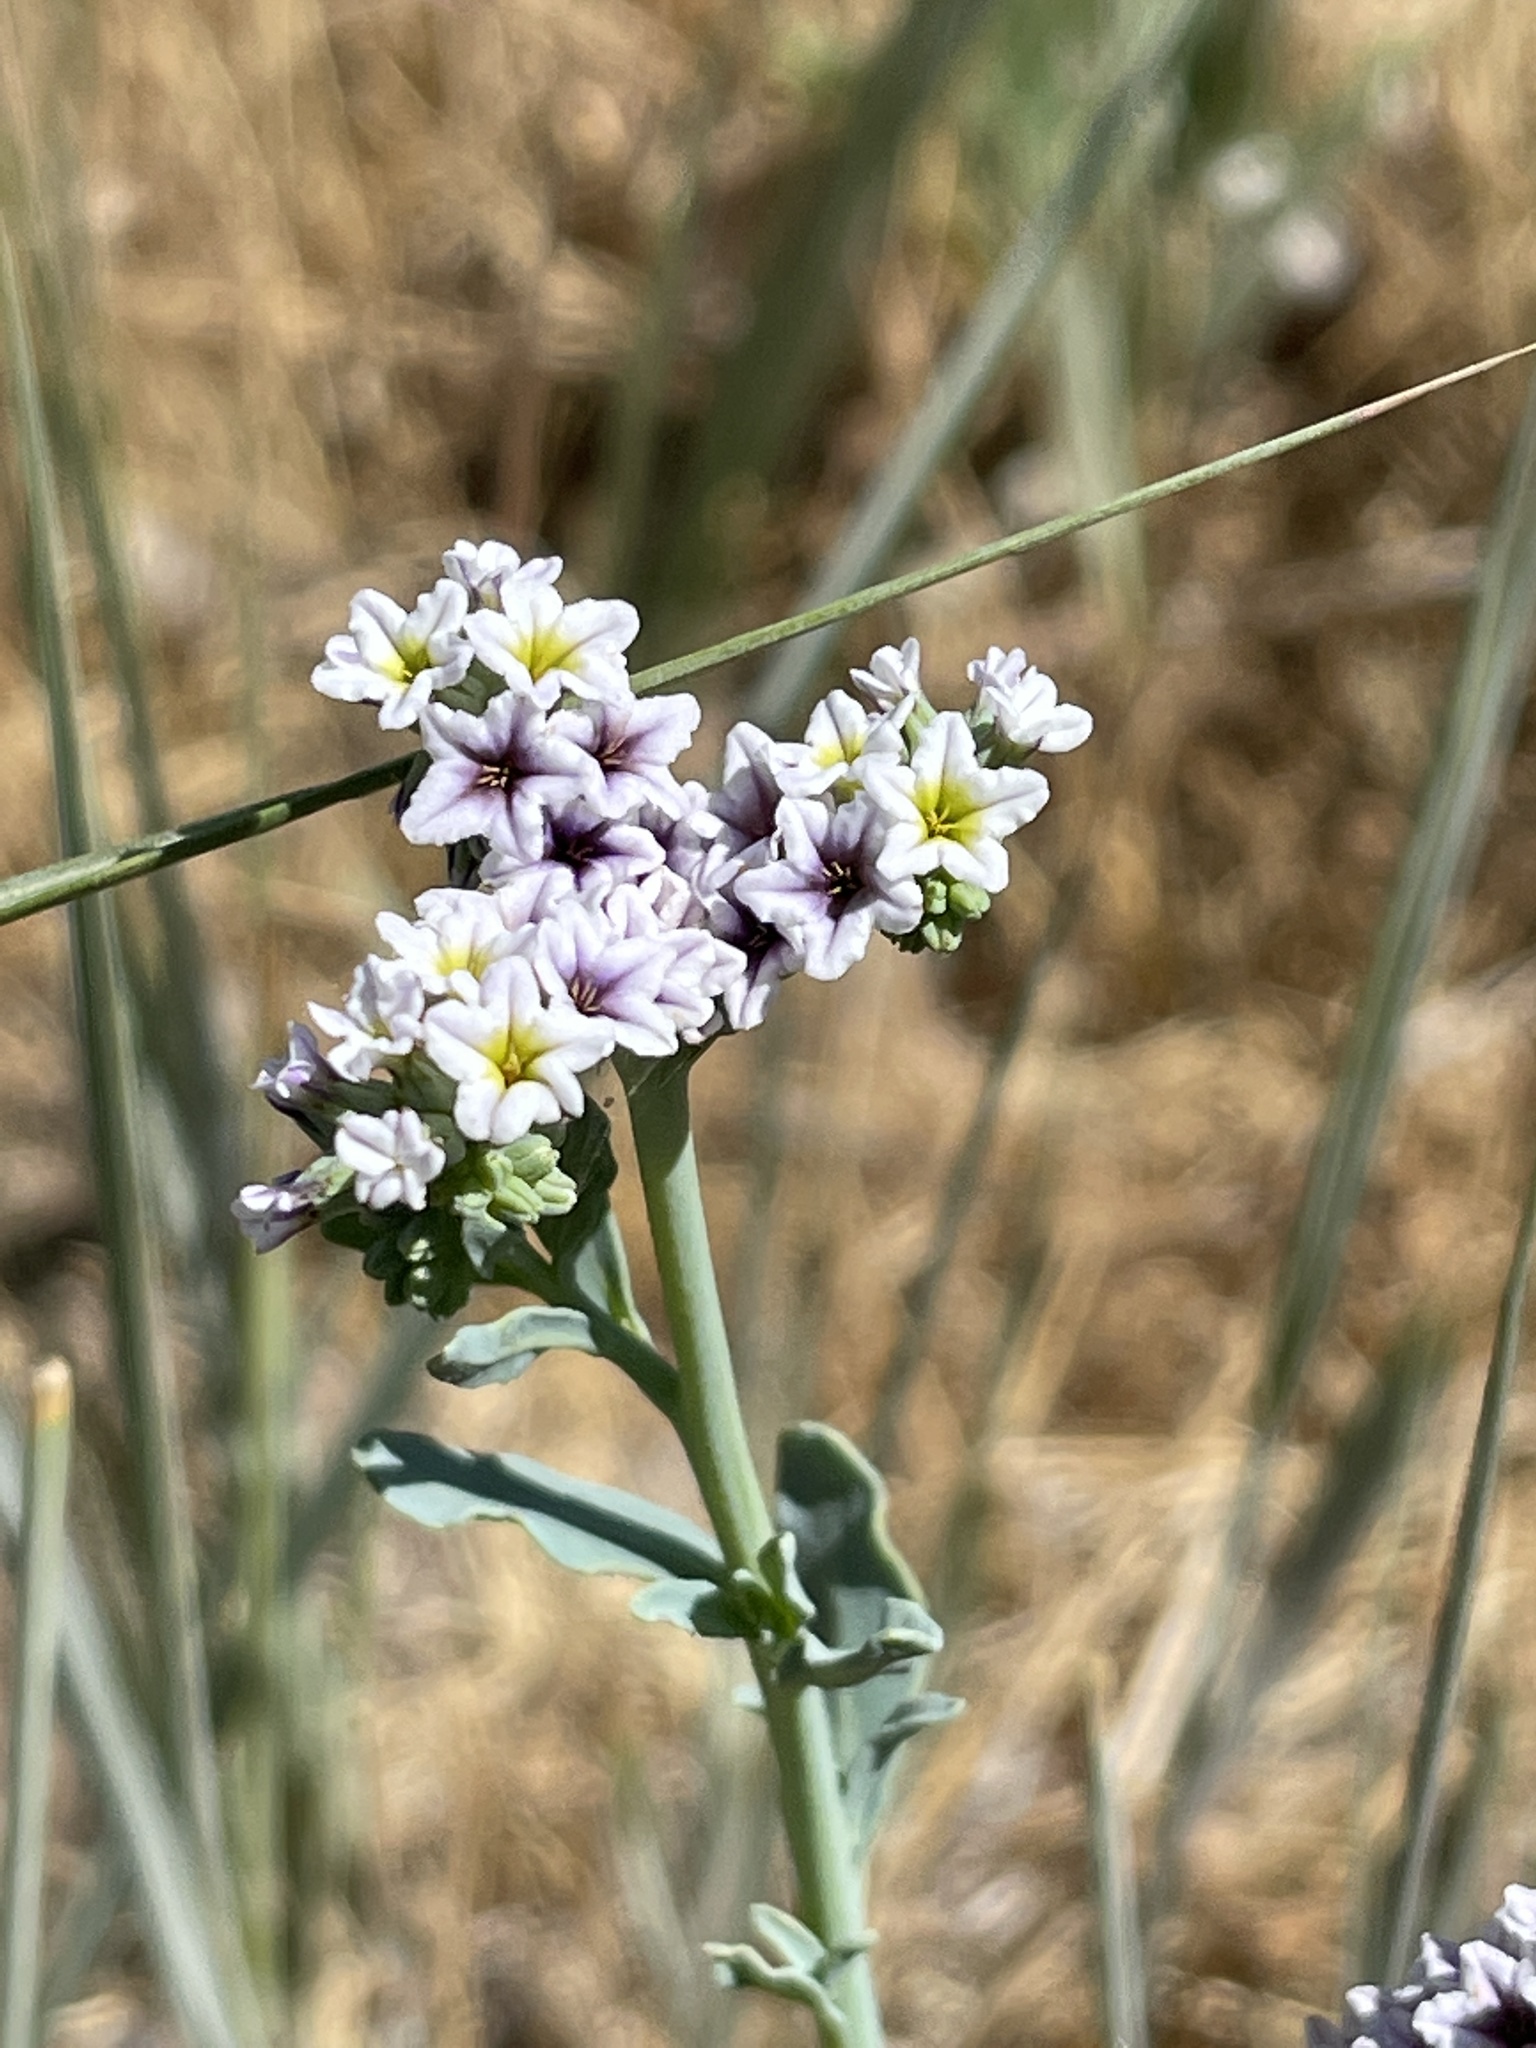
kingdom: Plantae
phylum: Tracheophyta
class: Magnoliopsida
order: Boraginales
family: Heliotropiaceae
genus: Heliotropium
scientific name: Heliotropium curassavicum
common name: Seaside heliotrope
